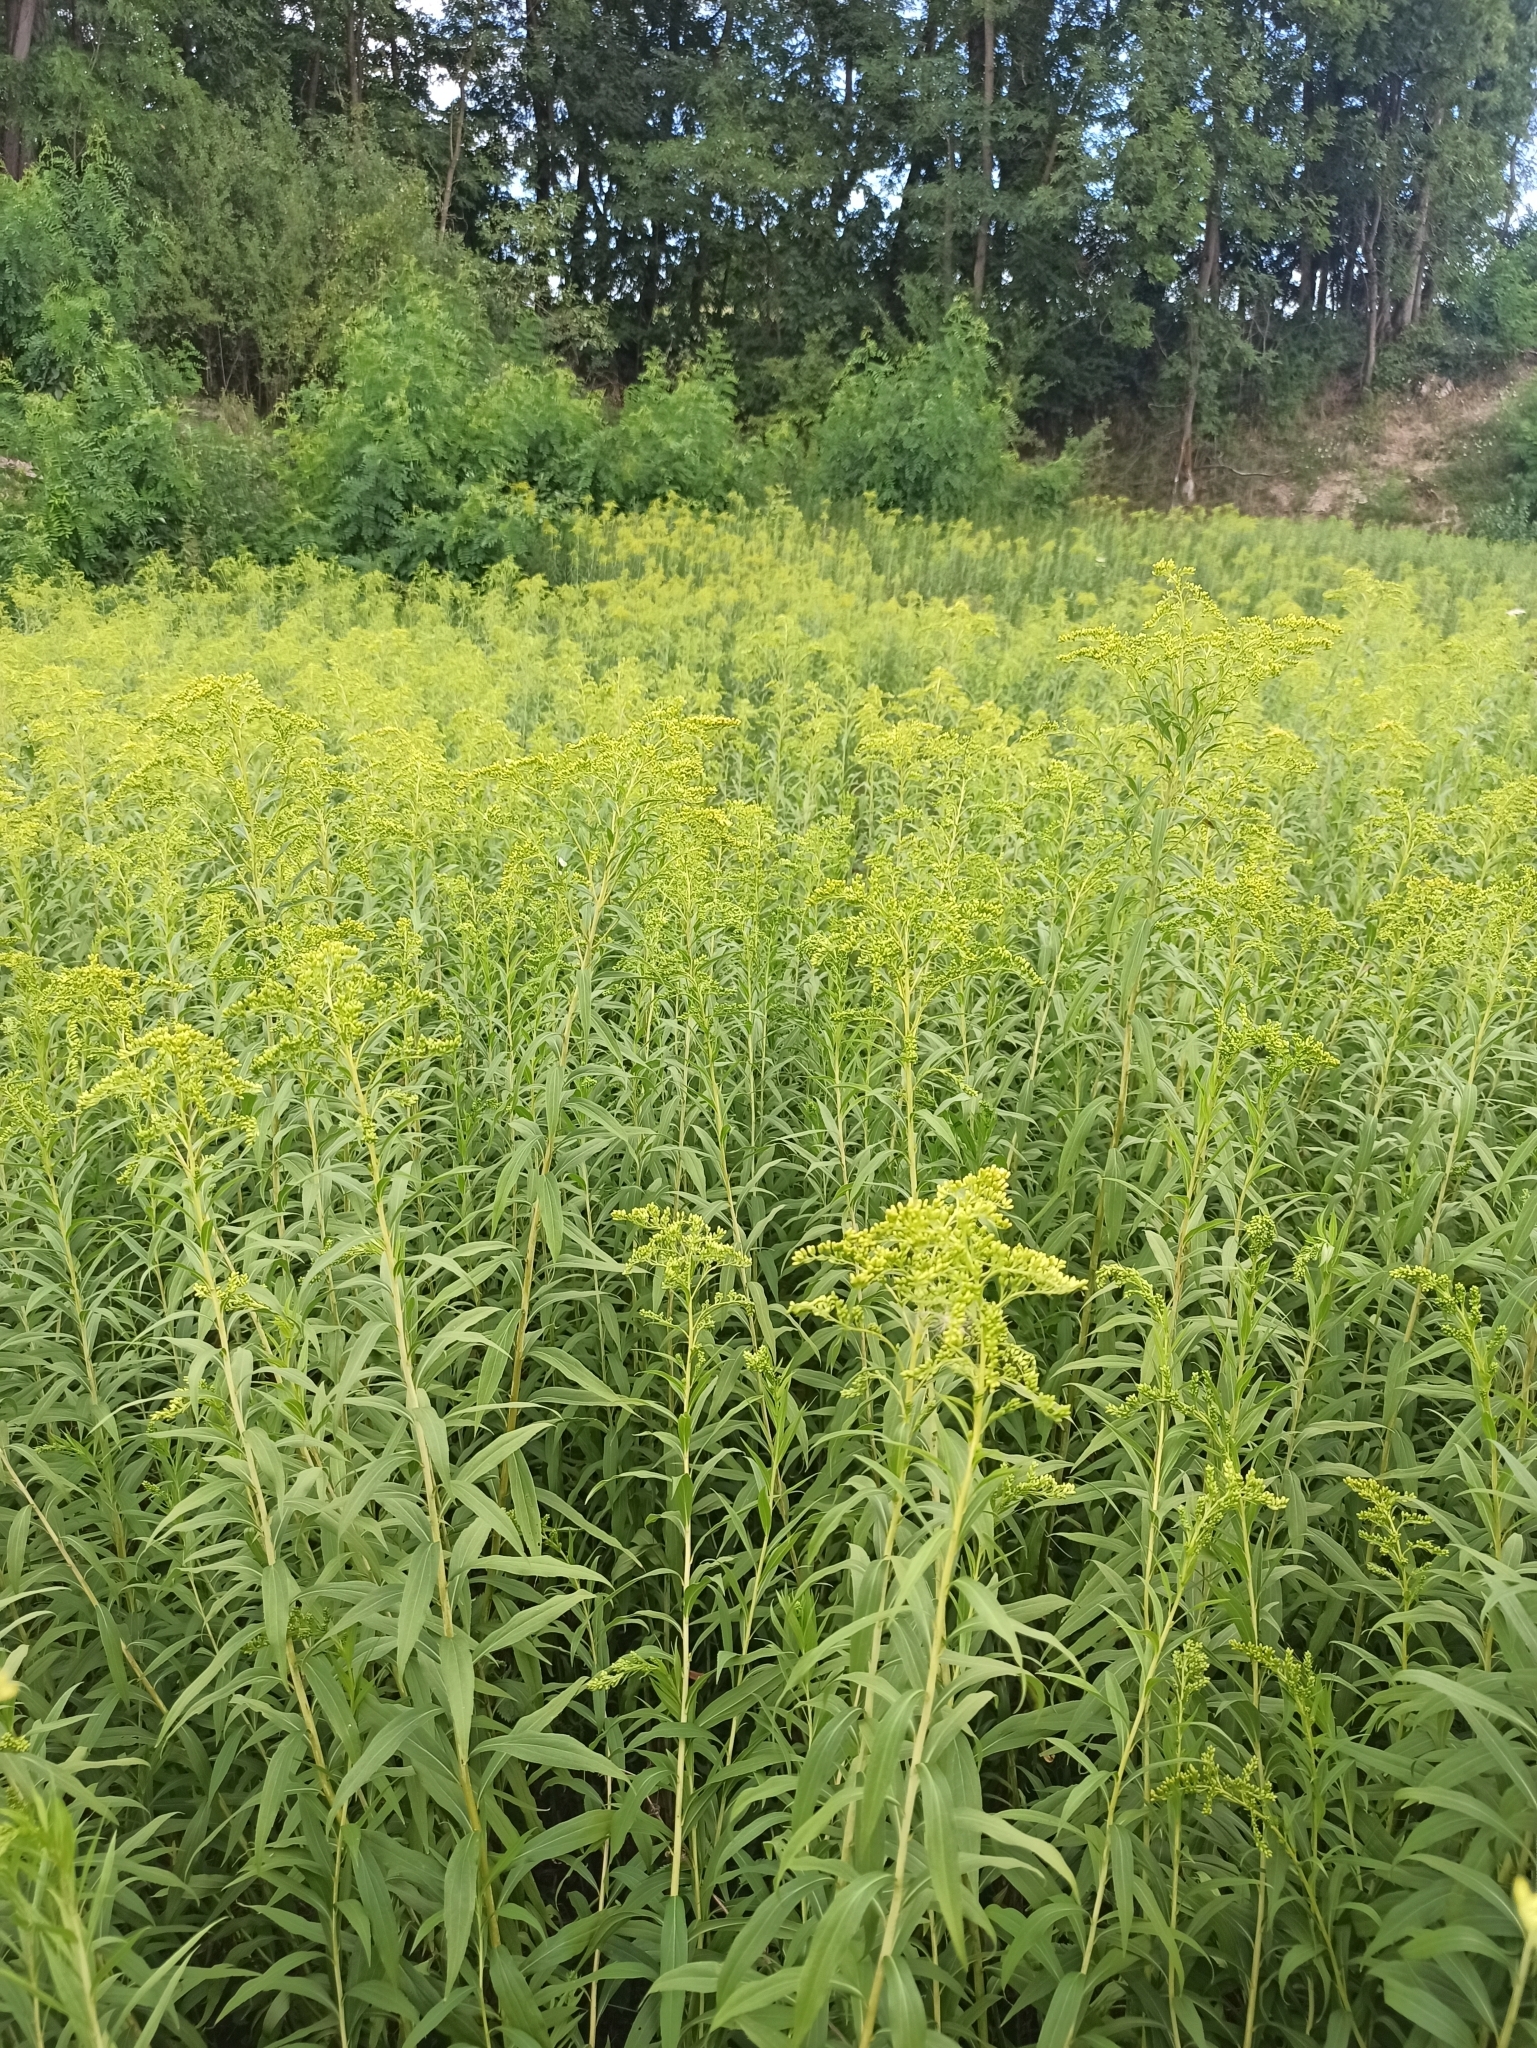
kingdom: Plantae
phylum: Tracheophyta
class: Magnoliopsida
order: Asterales
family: Asteraceae
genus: Solidago
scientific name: Solidago gigantea
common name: Giant goldenrod
